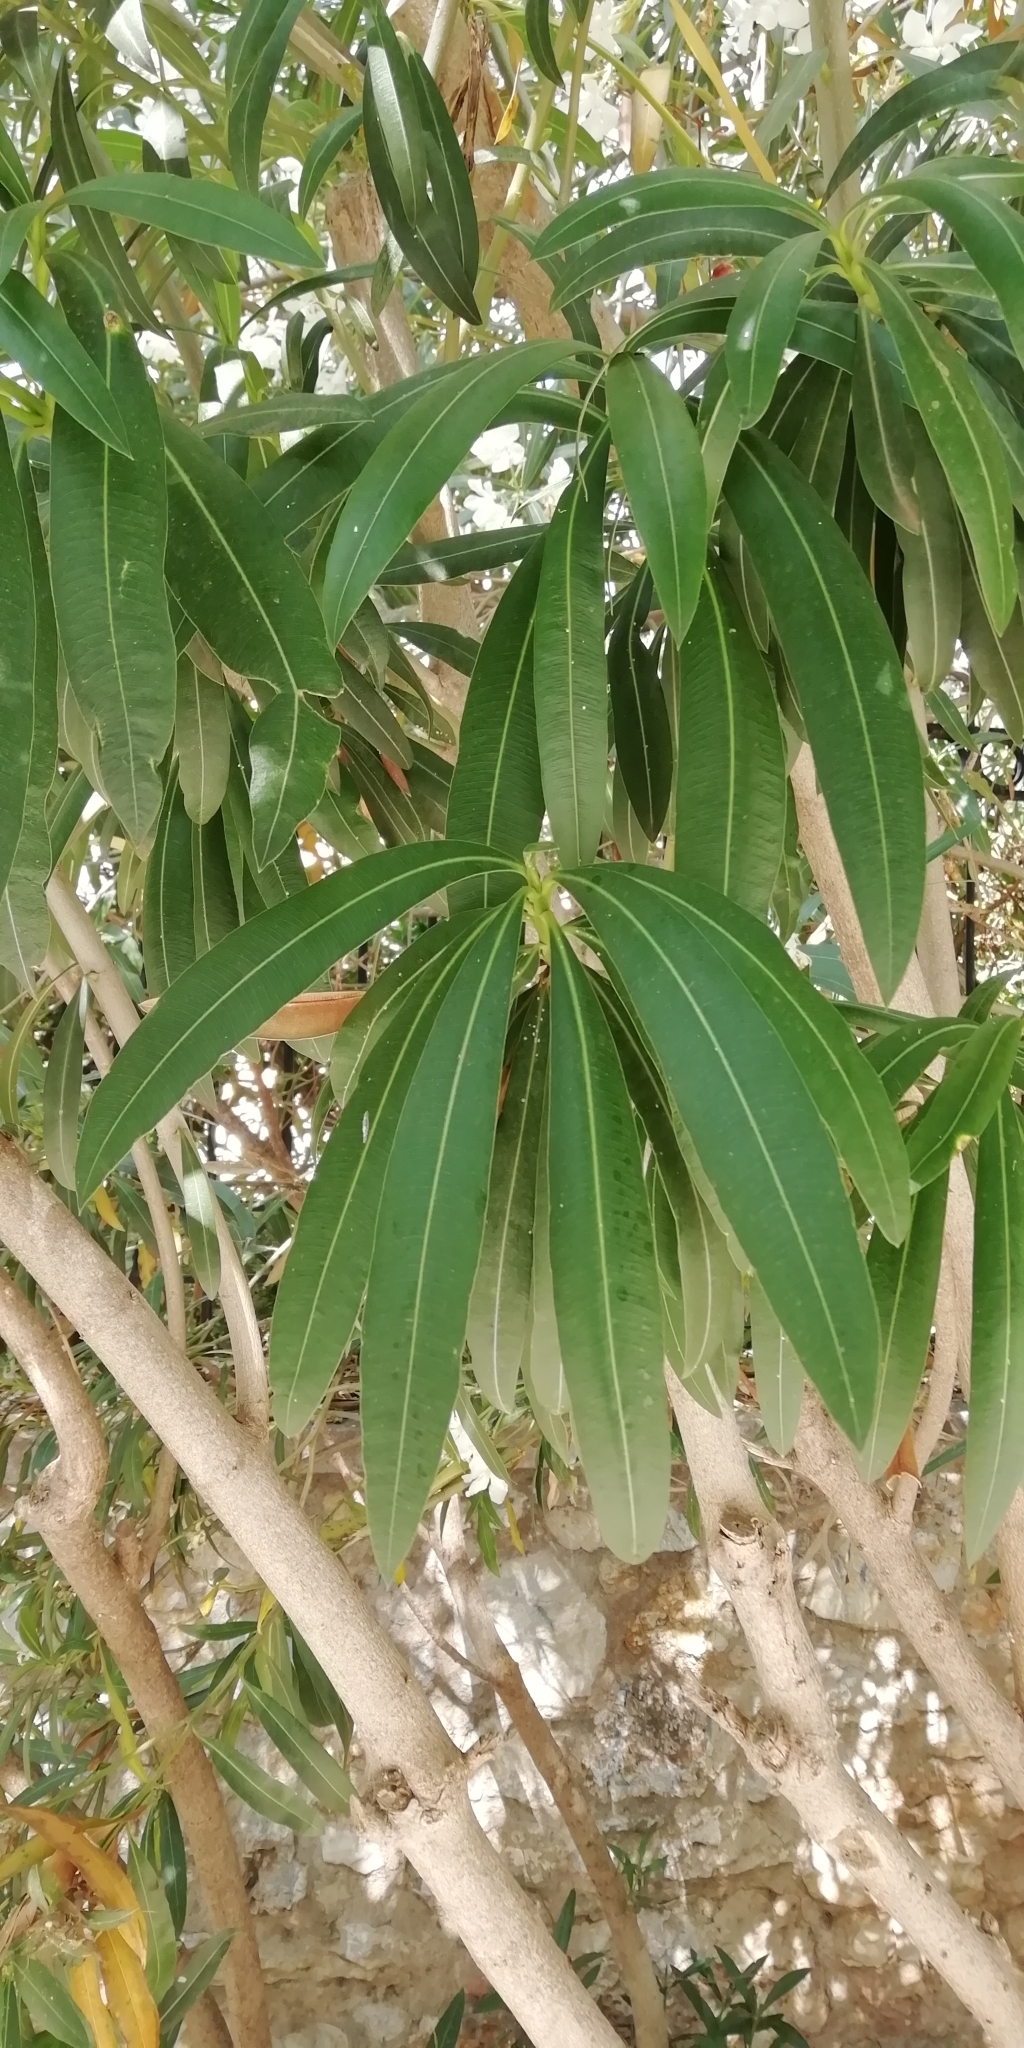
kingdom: Plantae
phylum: Tracheophyta
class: Magnoliopsida
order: Gentianales
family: Apocynaceae
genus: Nerium
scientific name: Nerium oleander
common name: Oleander
